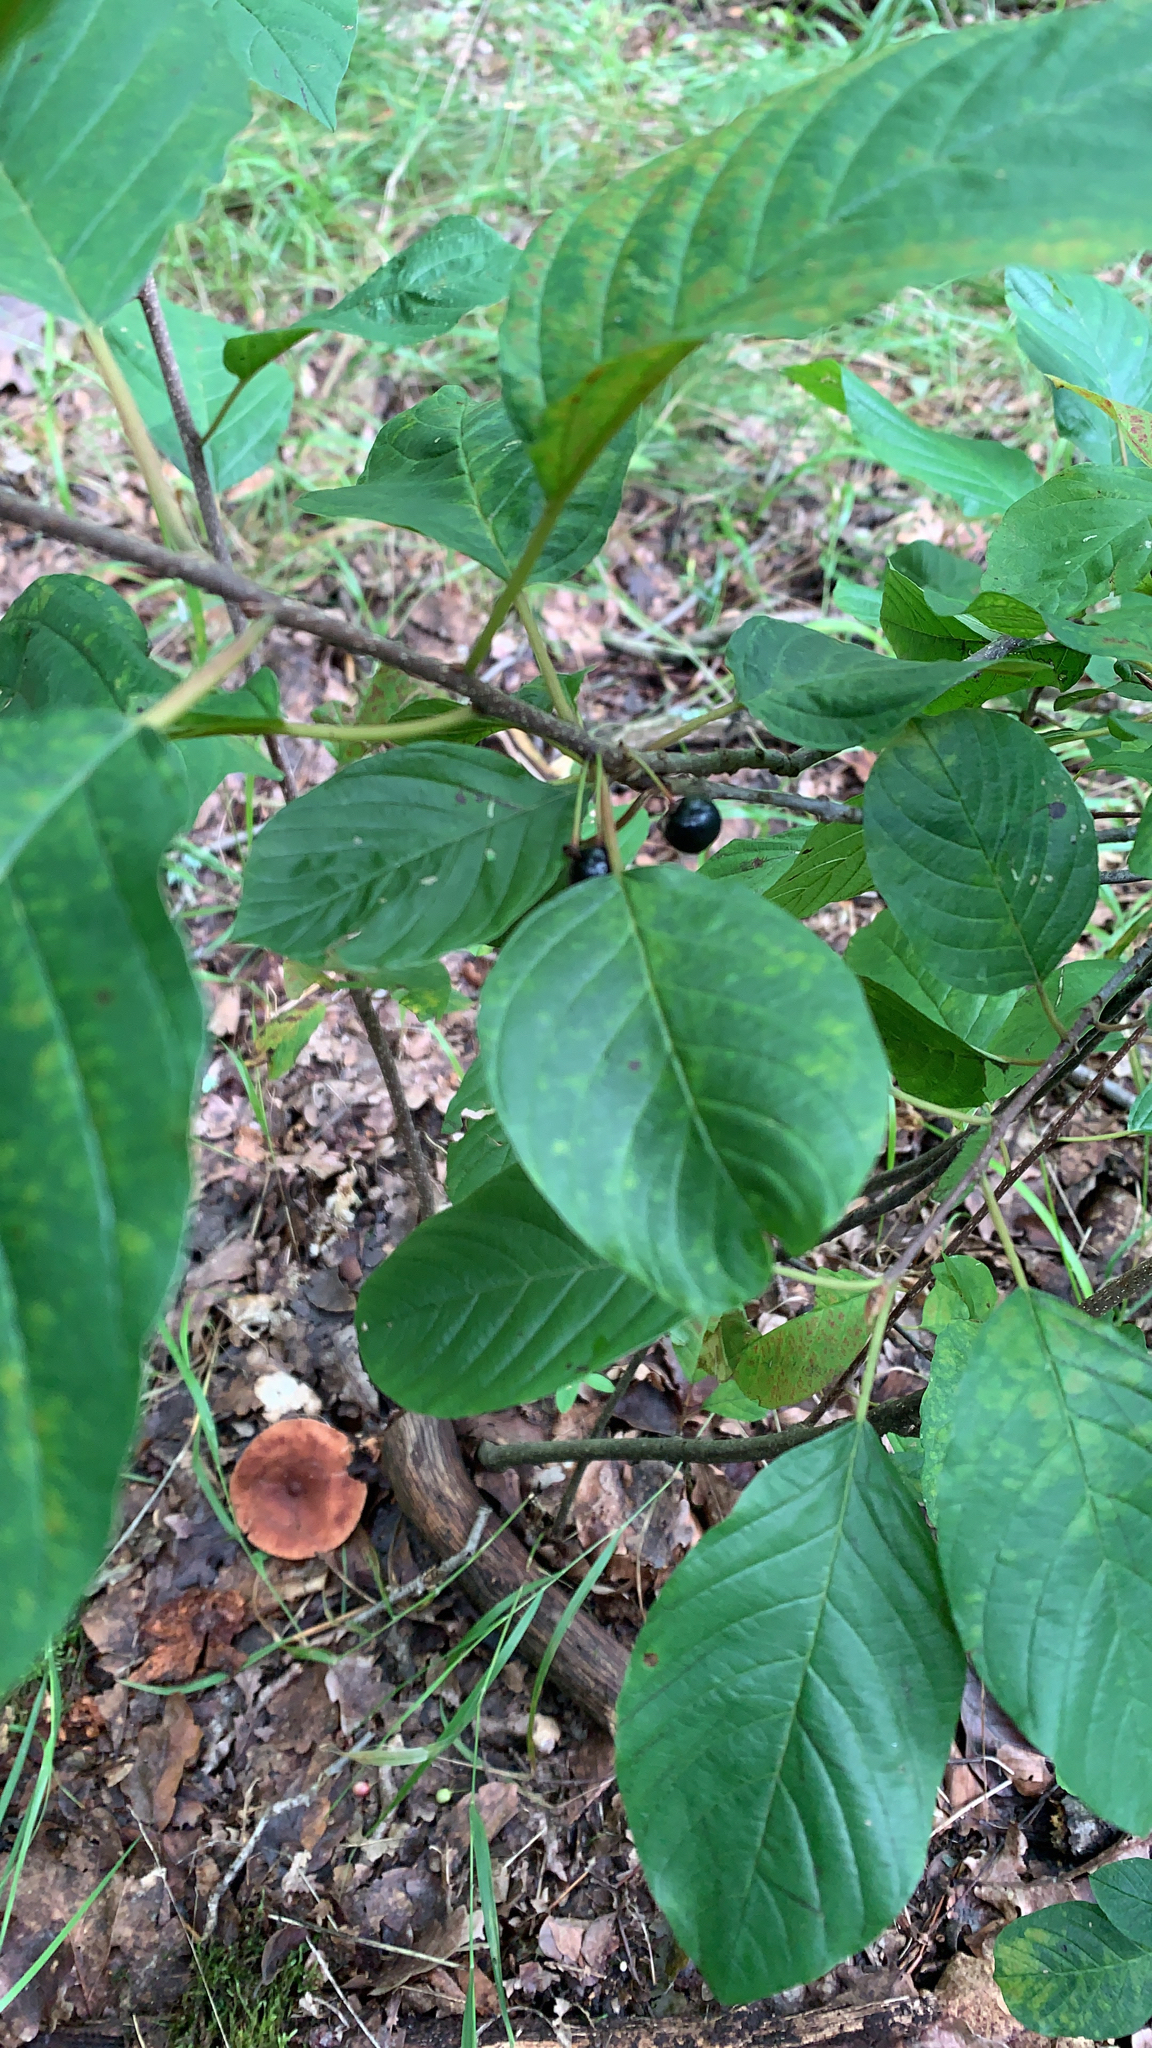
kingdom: Plantae
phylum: Tracheophyta
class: Magnoliopsida
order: Rosales
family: Rhamnaceae
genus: Frangula
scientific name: Frangula alnus
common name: Alder buckthorn
